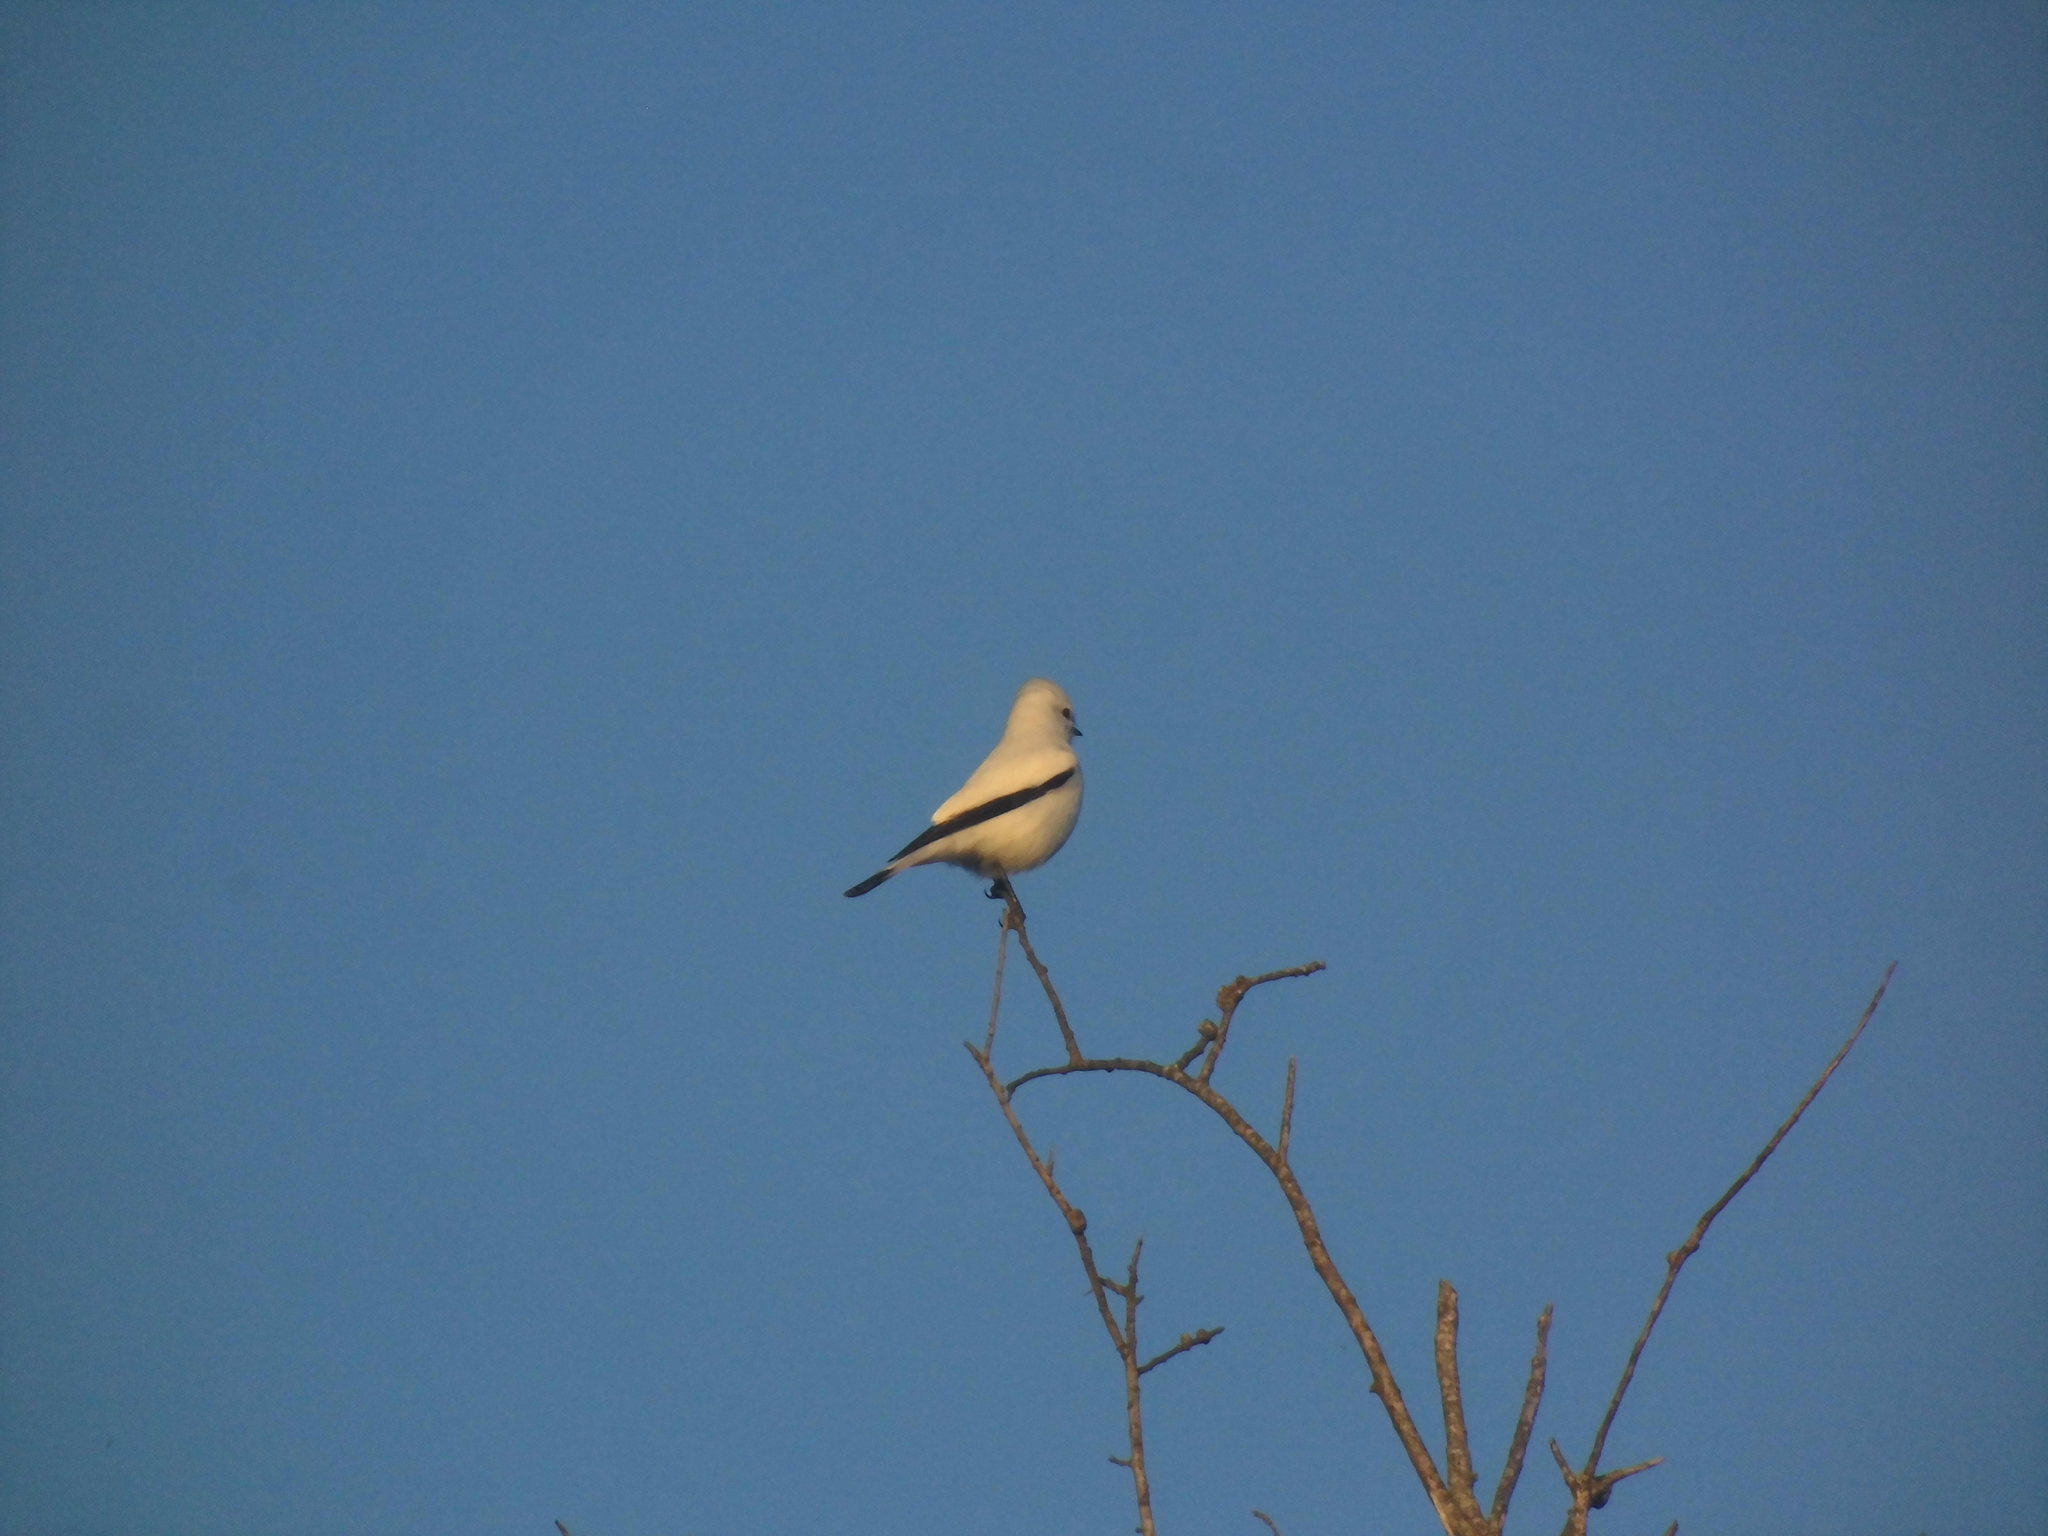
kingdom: Animalia
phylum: Chordata
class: Aves
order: Passeriformes
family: Tyrannidae
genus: Xolmis
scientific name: Xolmis irupero
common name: White monjita
